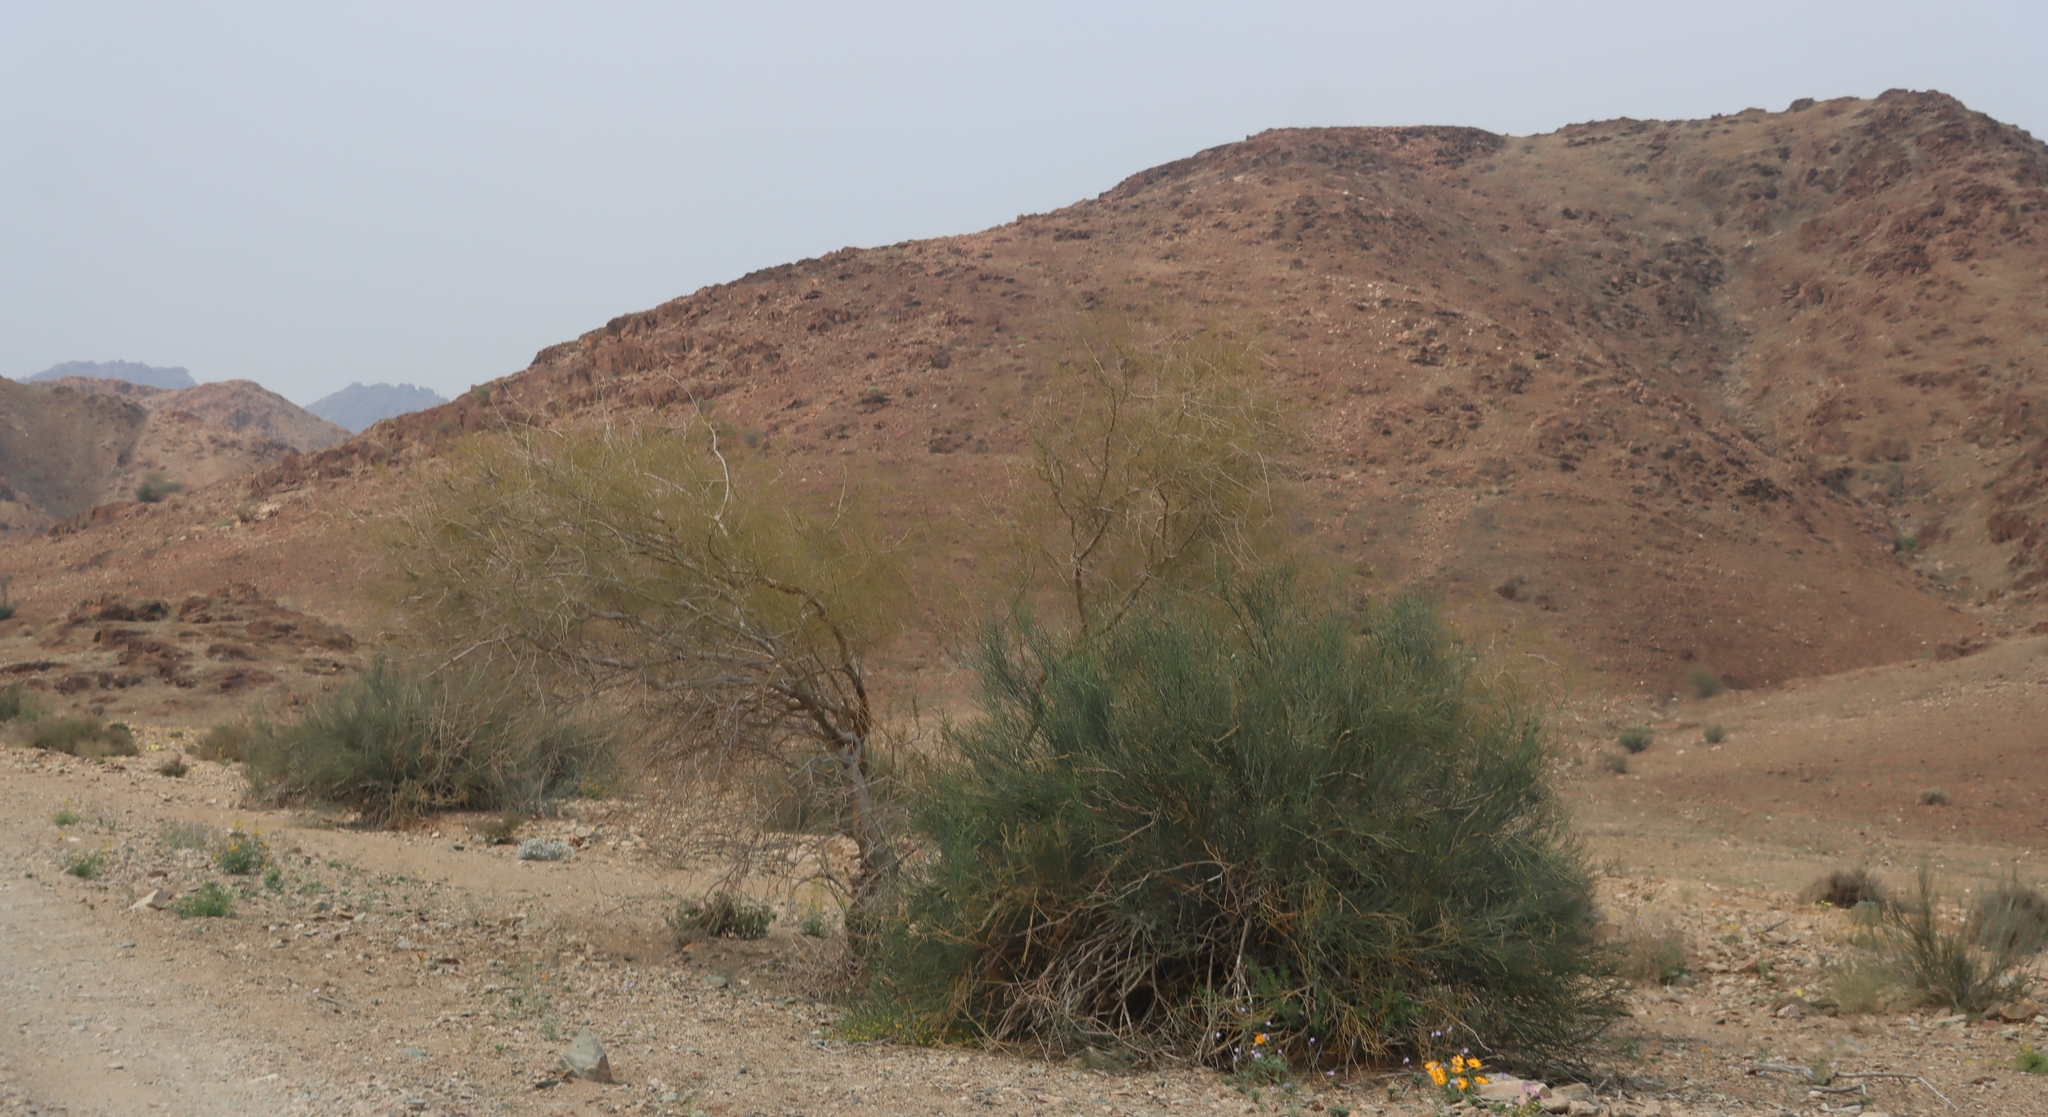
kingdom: Plantae
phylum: Tracheophyta
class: Magnoliopsida
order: Zygophyllales
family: Zygophyllaceae
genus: Sisyndite
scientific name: Sisyndite spartea
